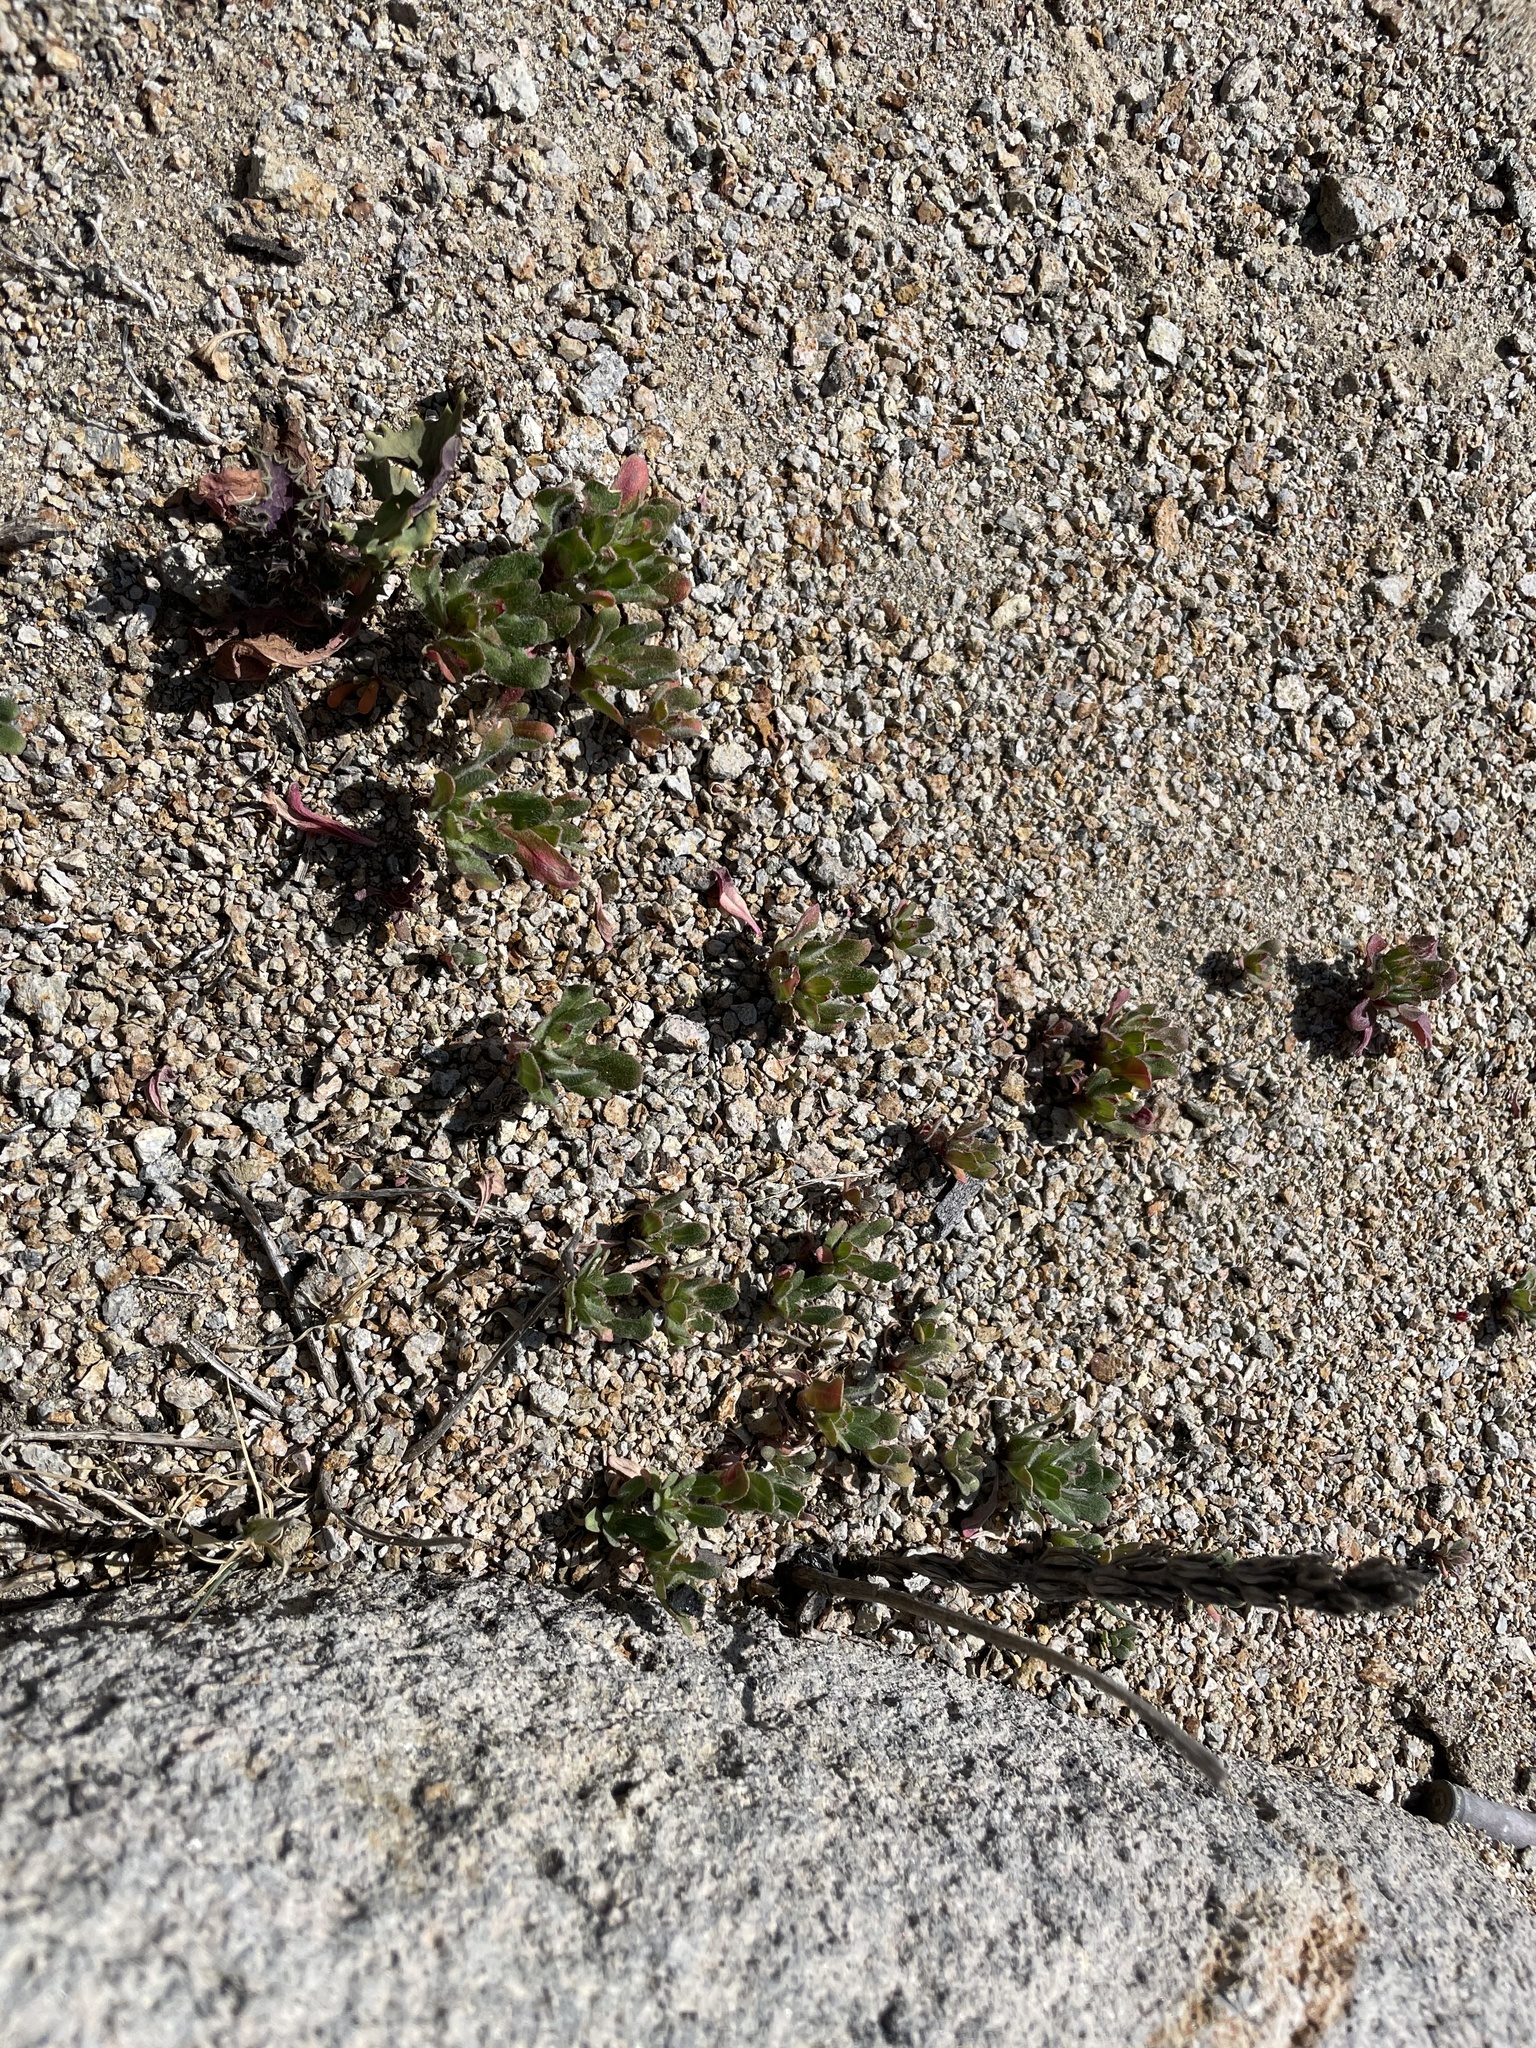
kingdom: Plantae
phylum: Tracheophyta
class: Magnoliopsida
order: Myrtales
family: Onagraceae
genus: Camissoniopsis
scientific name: Camissoniopsis guadalupensis
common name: Guadalupe suncup
